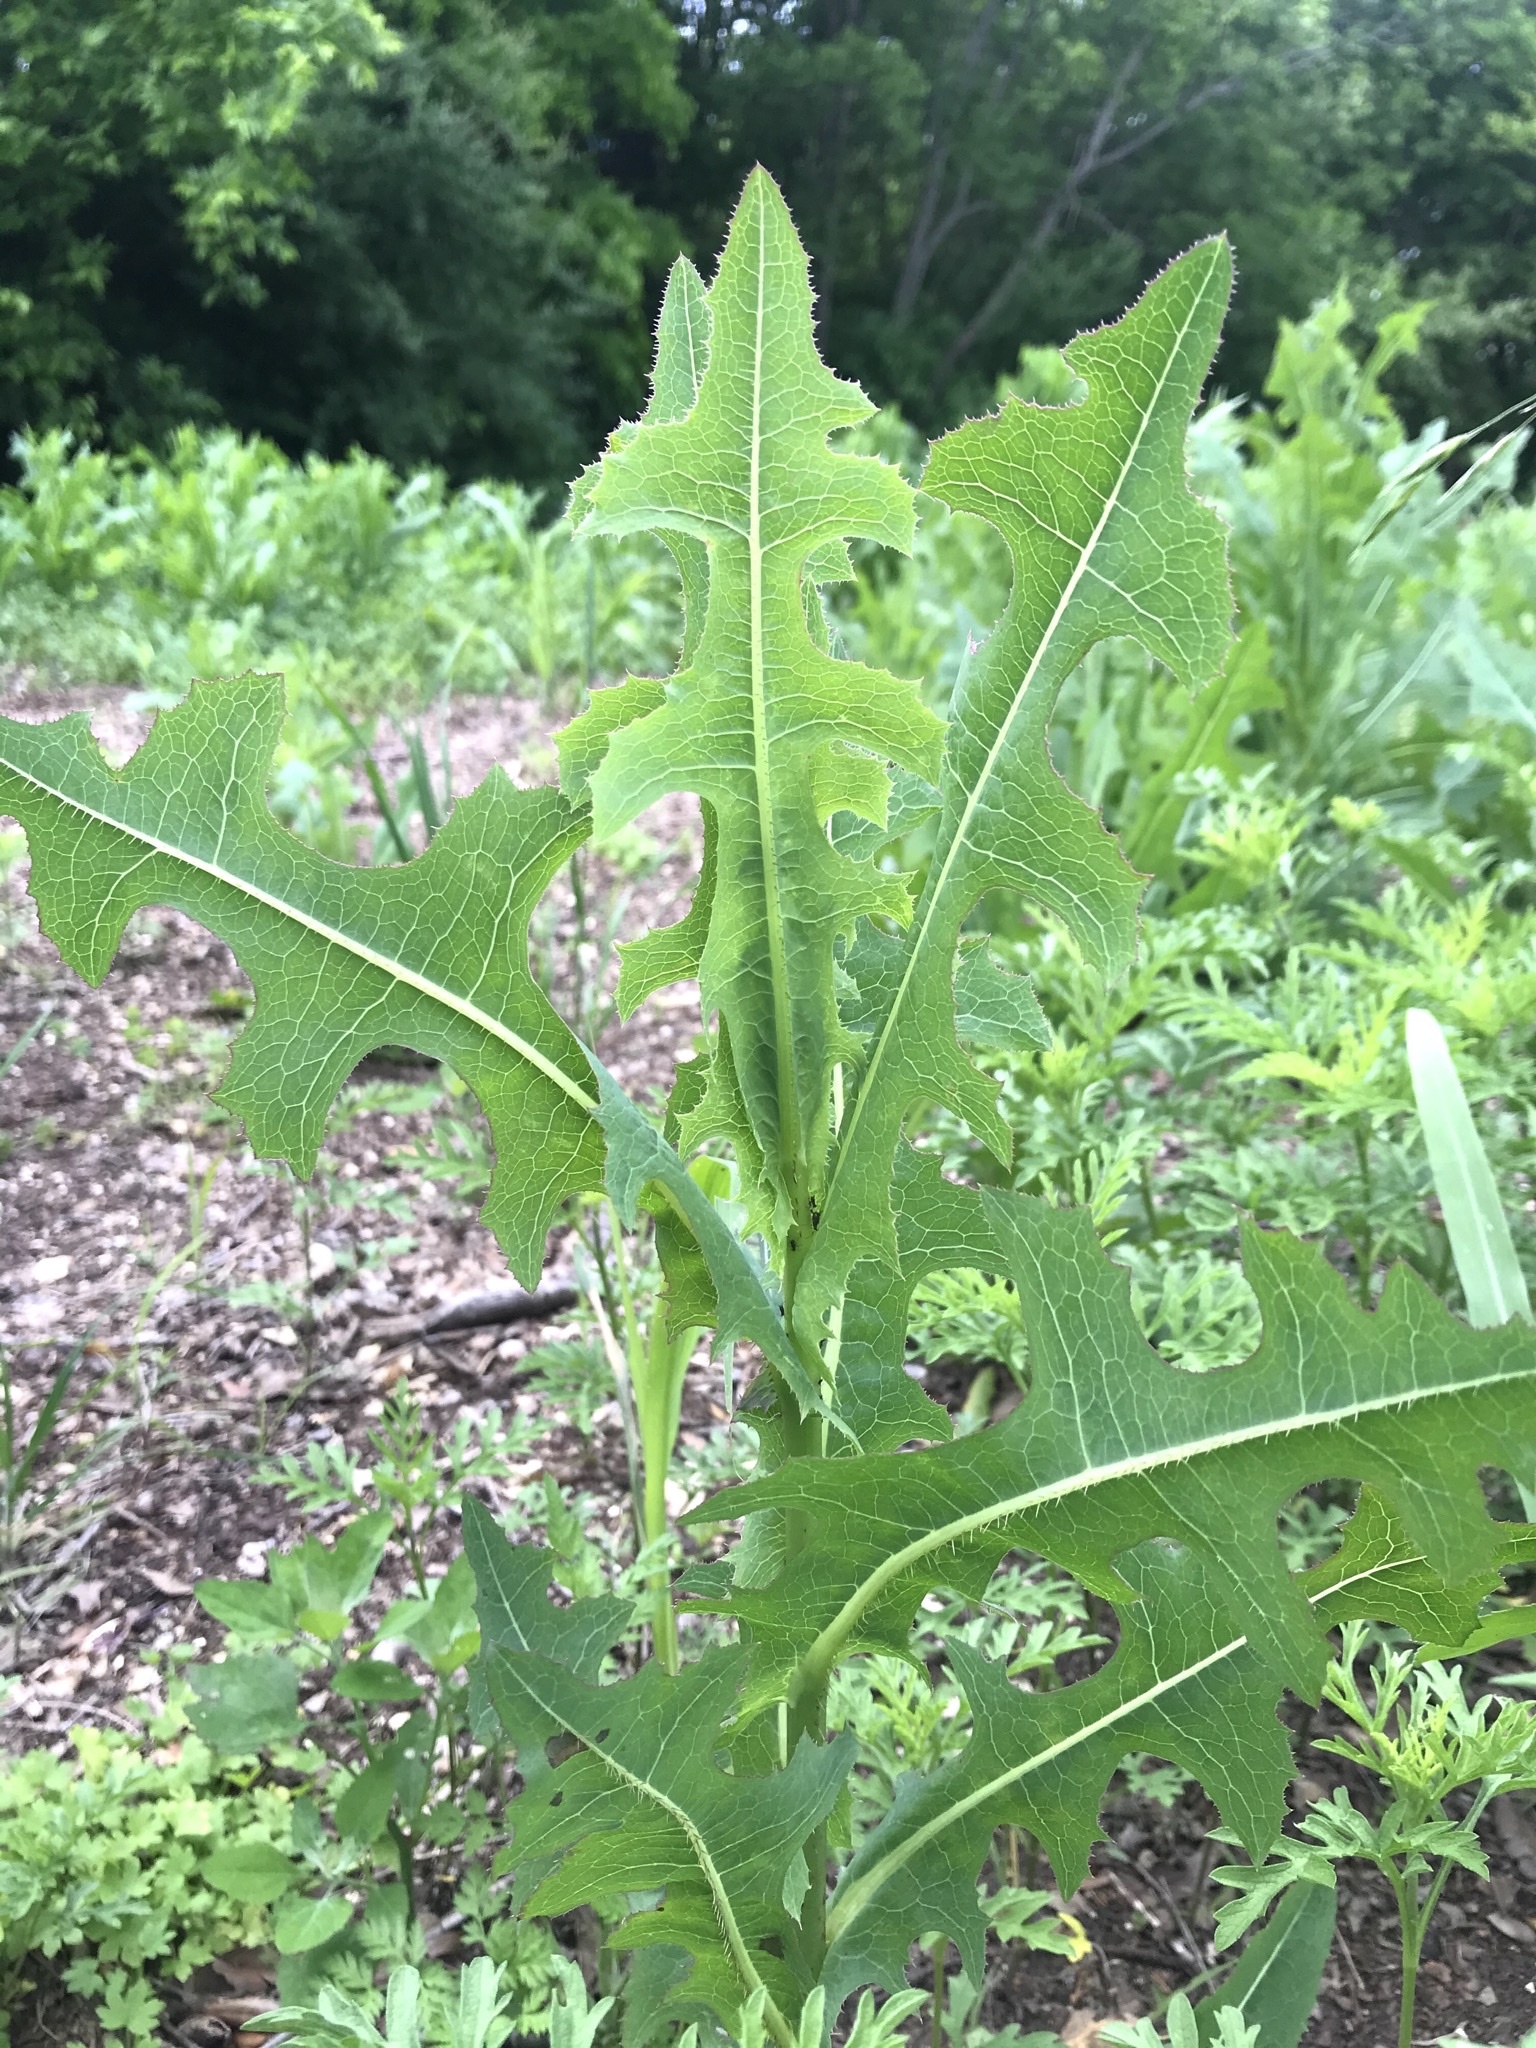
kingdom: Plantae
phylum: Tracheophyta
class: Magnoliopsida
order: Asterales
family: Asteraceae
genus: Lactuca
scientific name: Lactuca serriola
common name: Prickly lettuce
